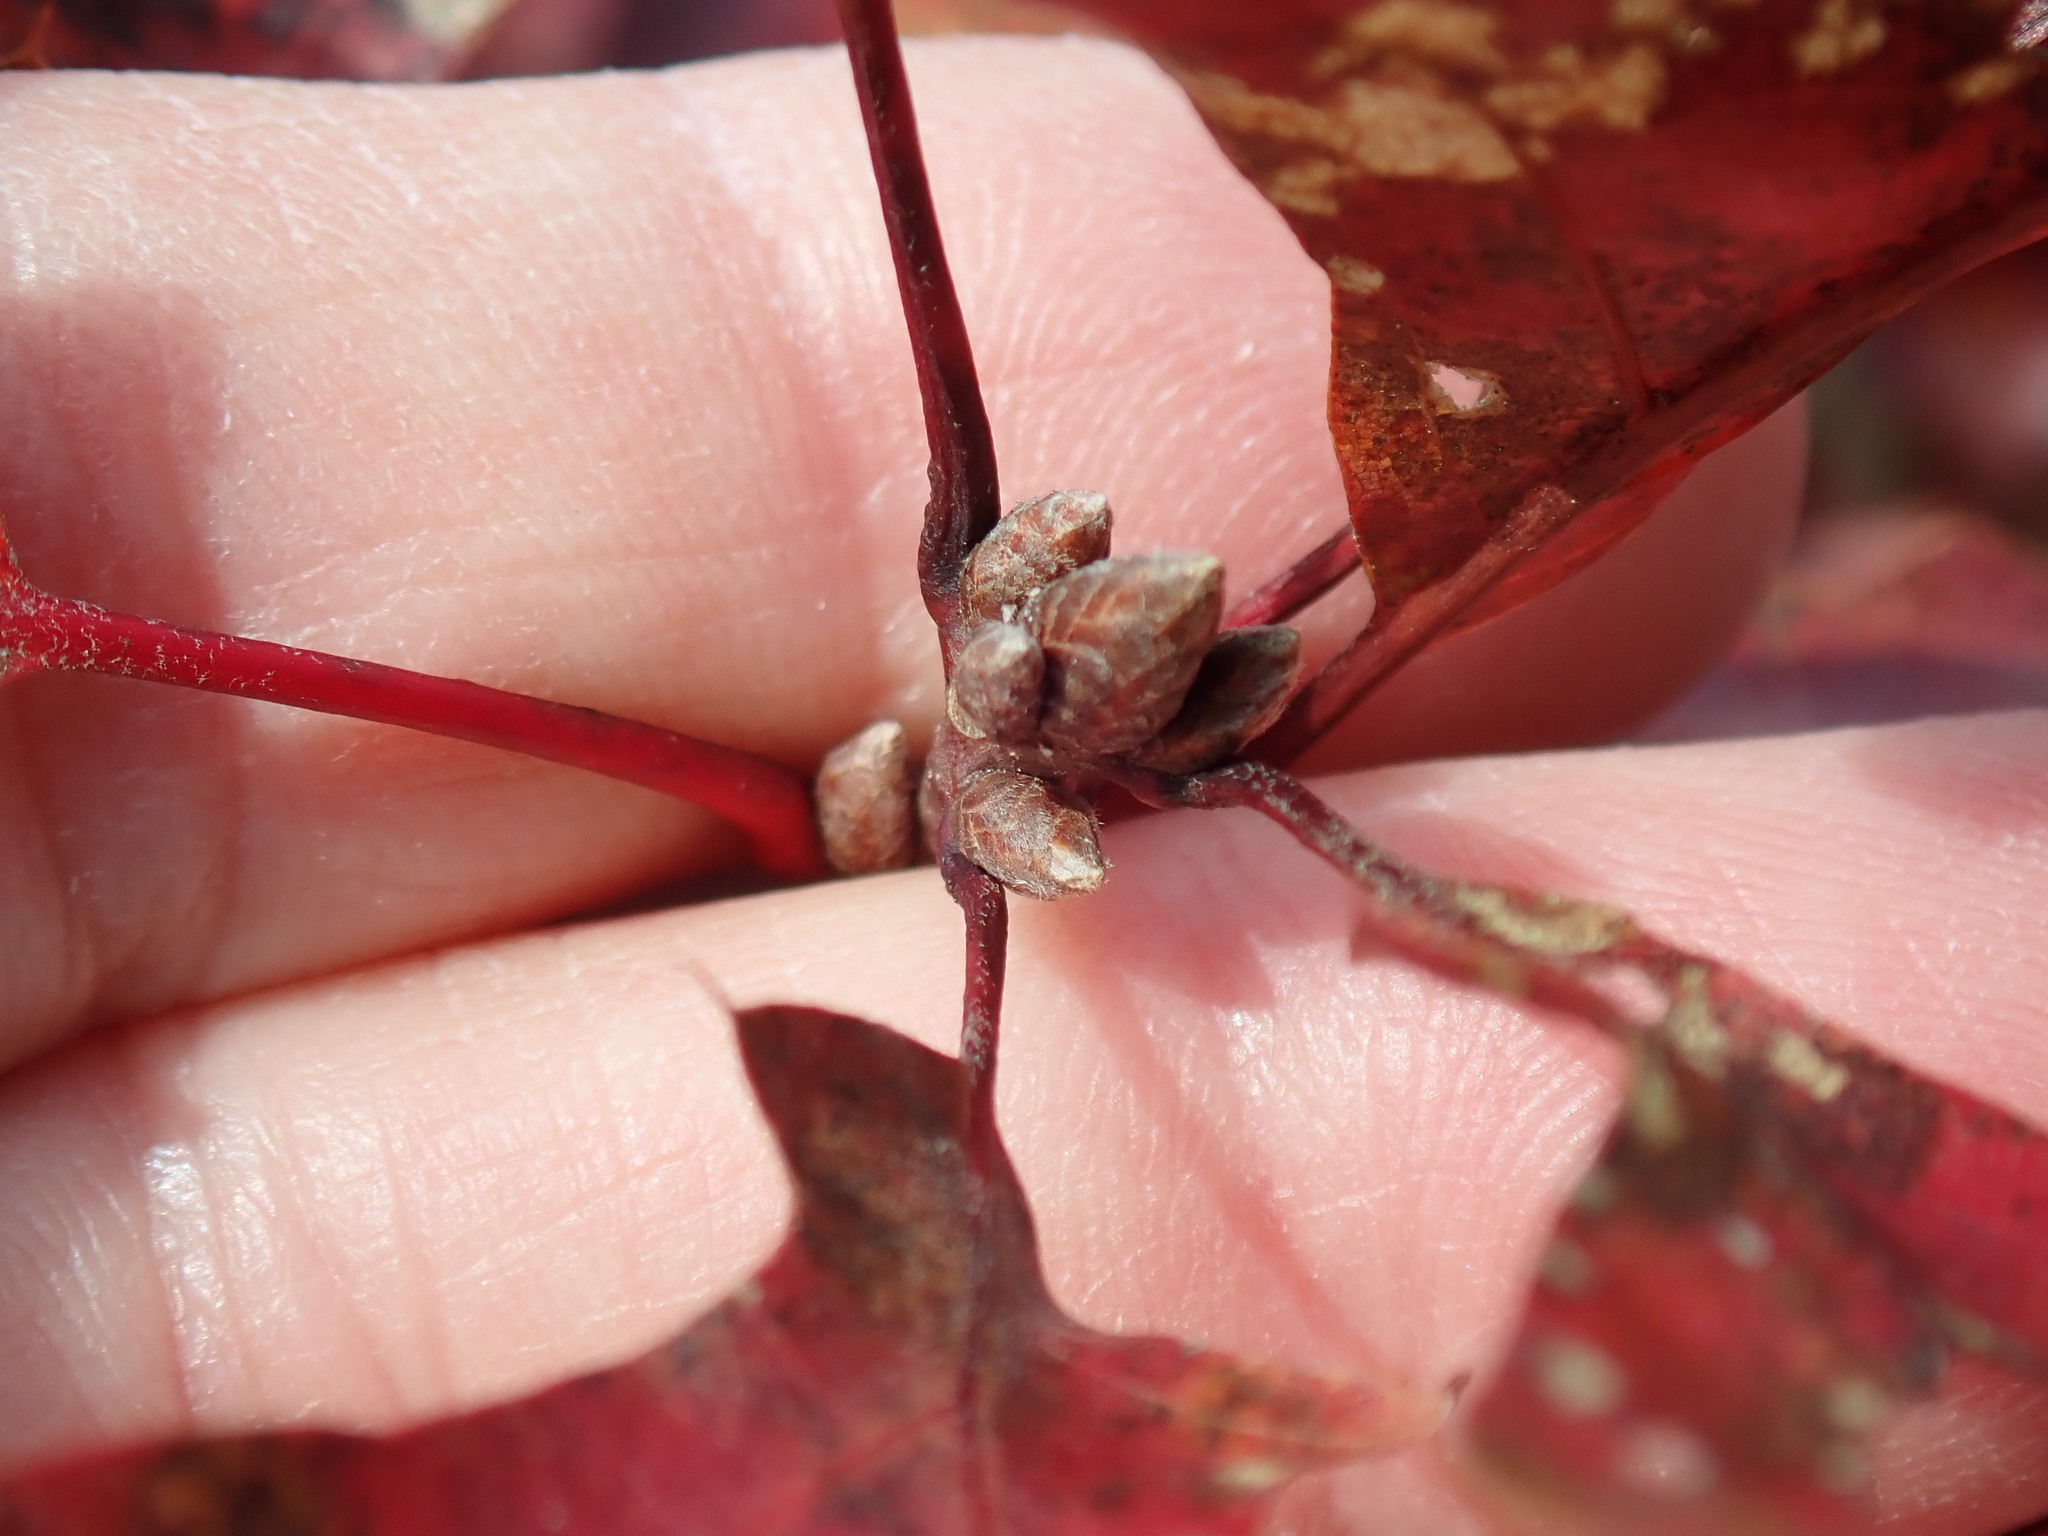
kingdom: Plantae
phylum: Tracheophyta
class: Magnoliopsida
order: Fagales
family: Fagaceae
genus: Quercus
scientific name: Quercus coccinea
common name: Scarlet oak
